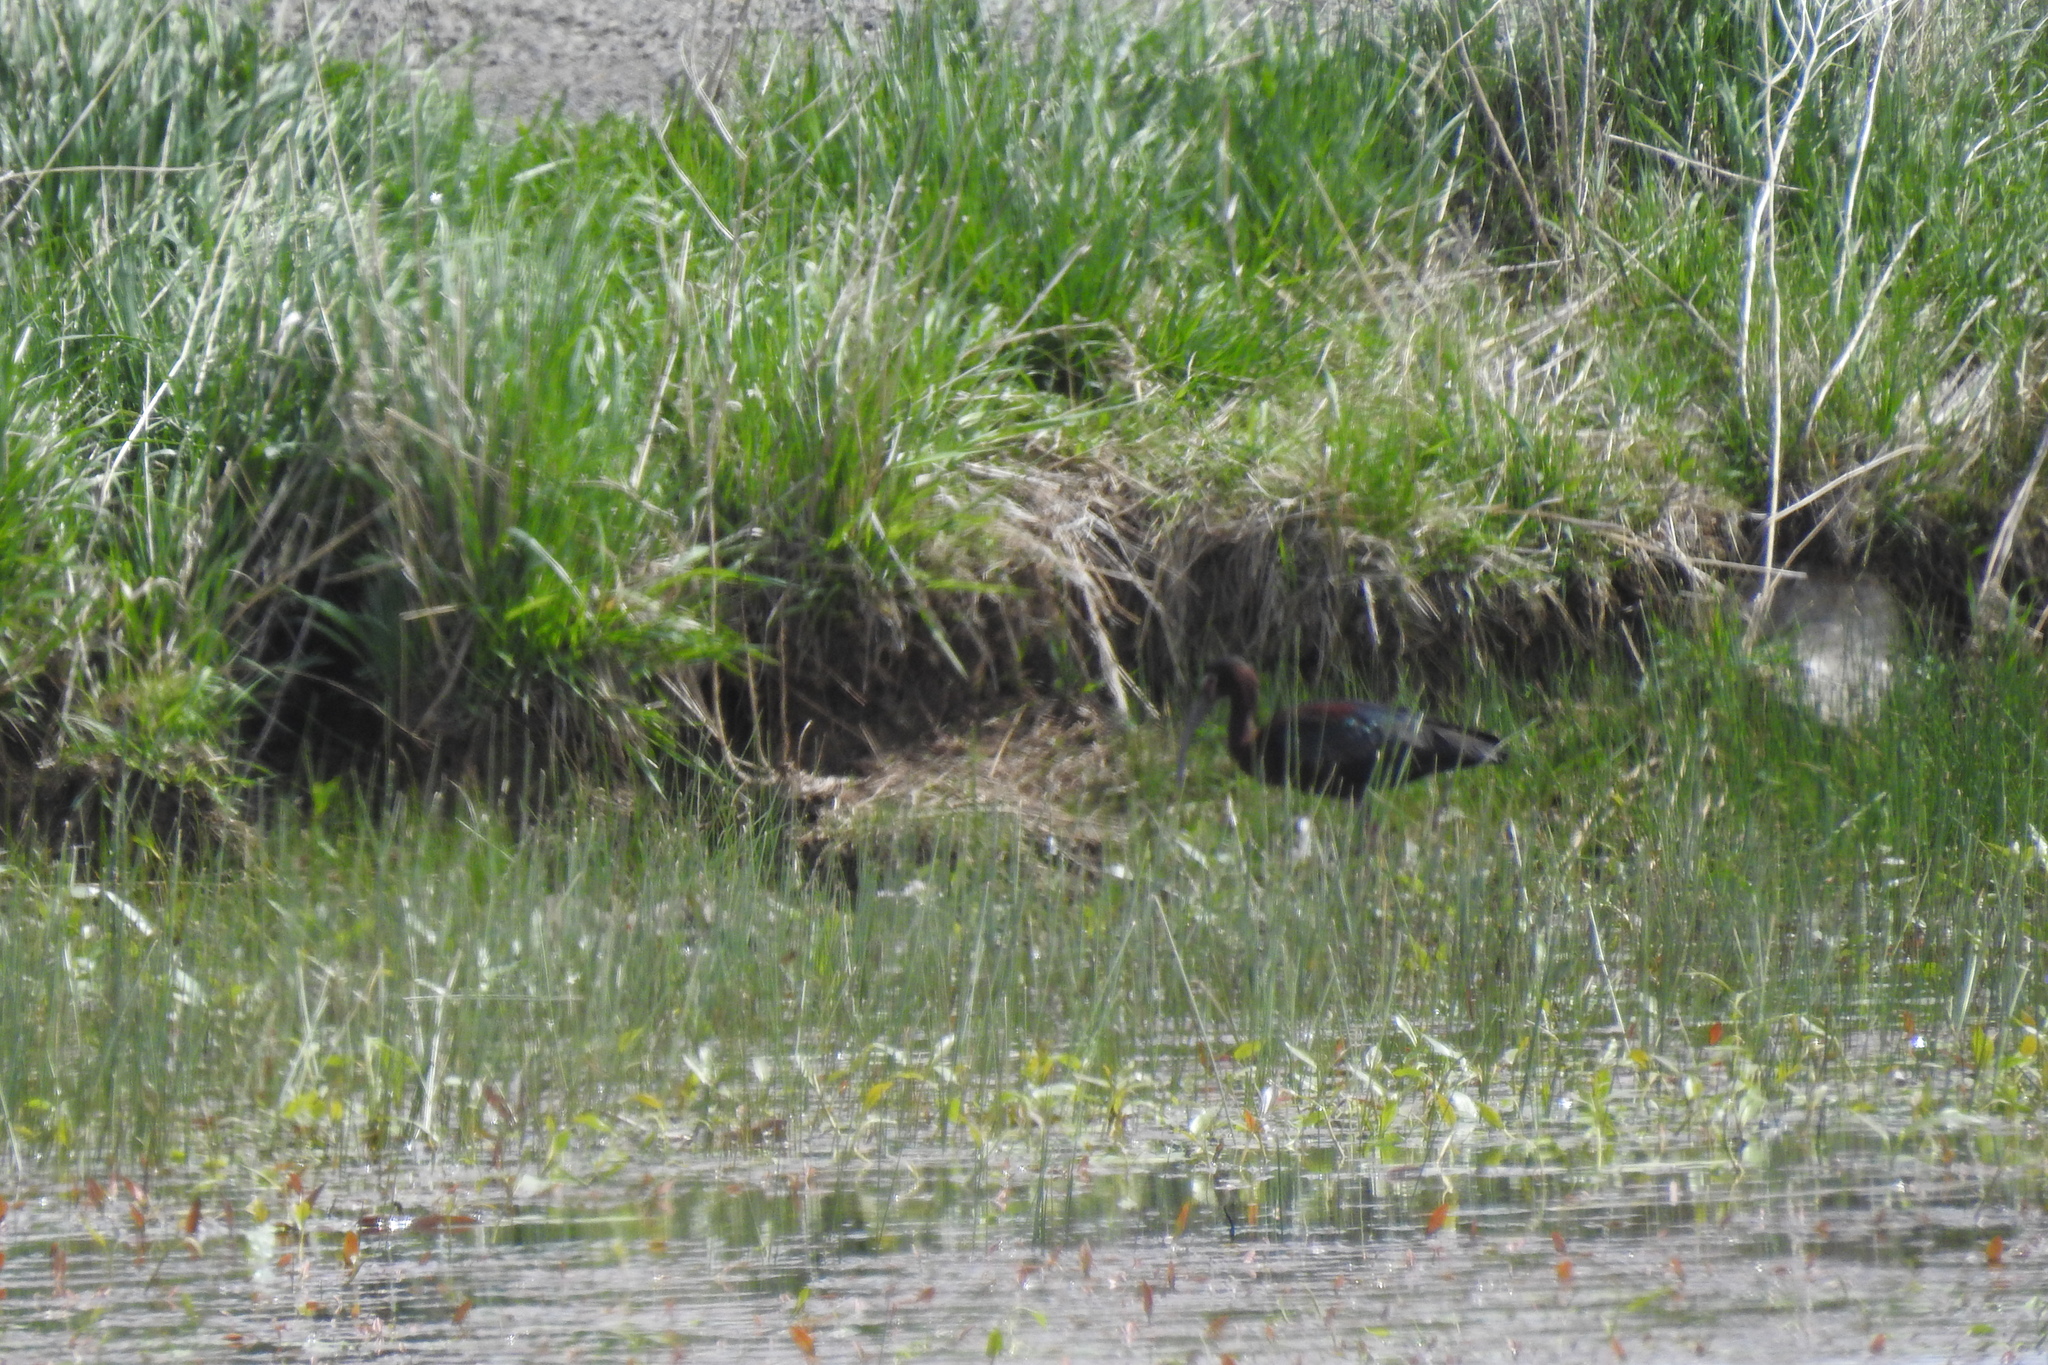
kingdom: Animalia
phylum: Chordata
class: Aves
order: Pelecaniformes
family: Threskiornithidae
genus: Plegadis
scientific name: Plegadis chihi
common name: White-faced ibis
